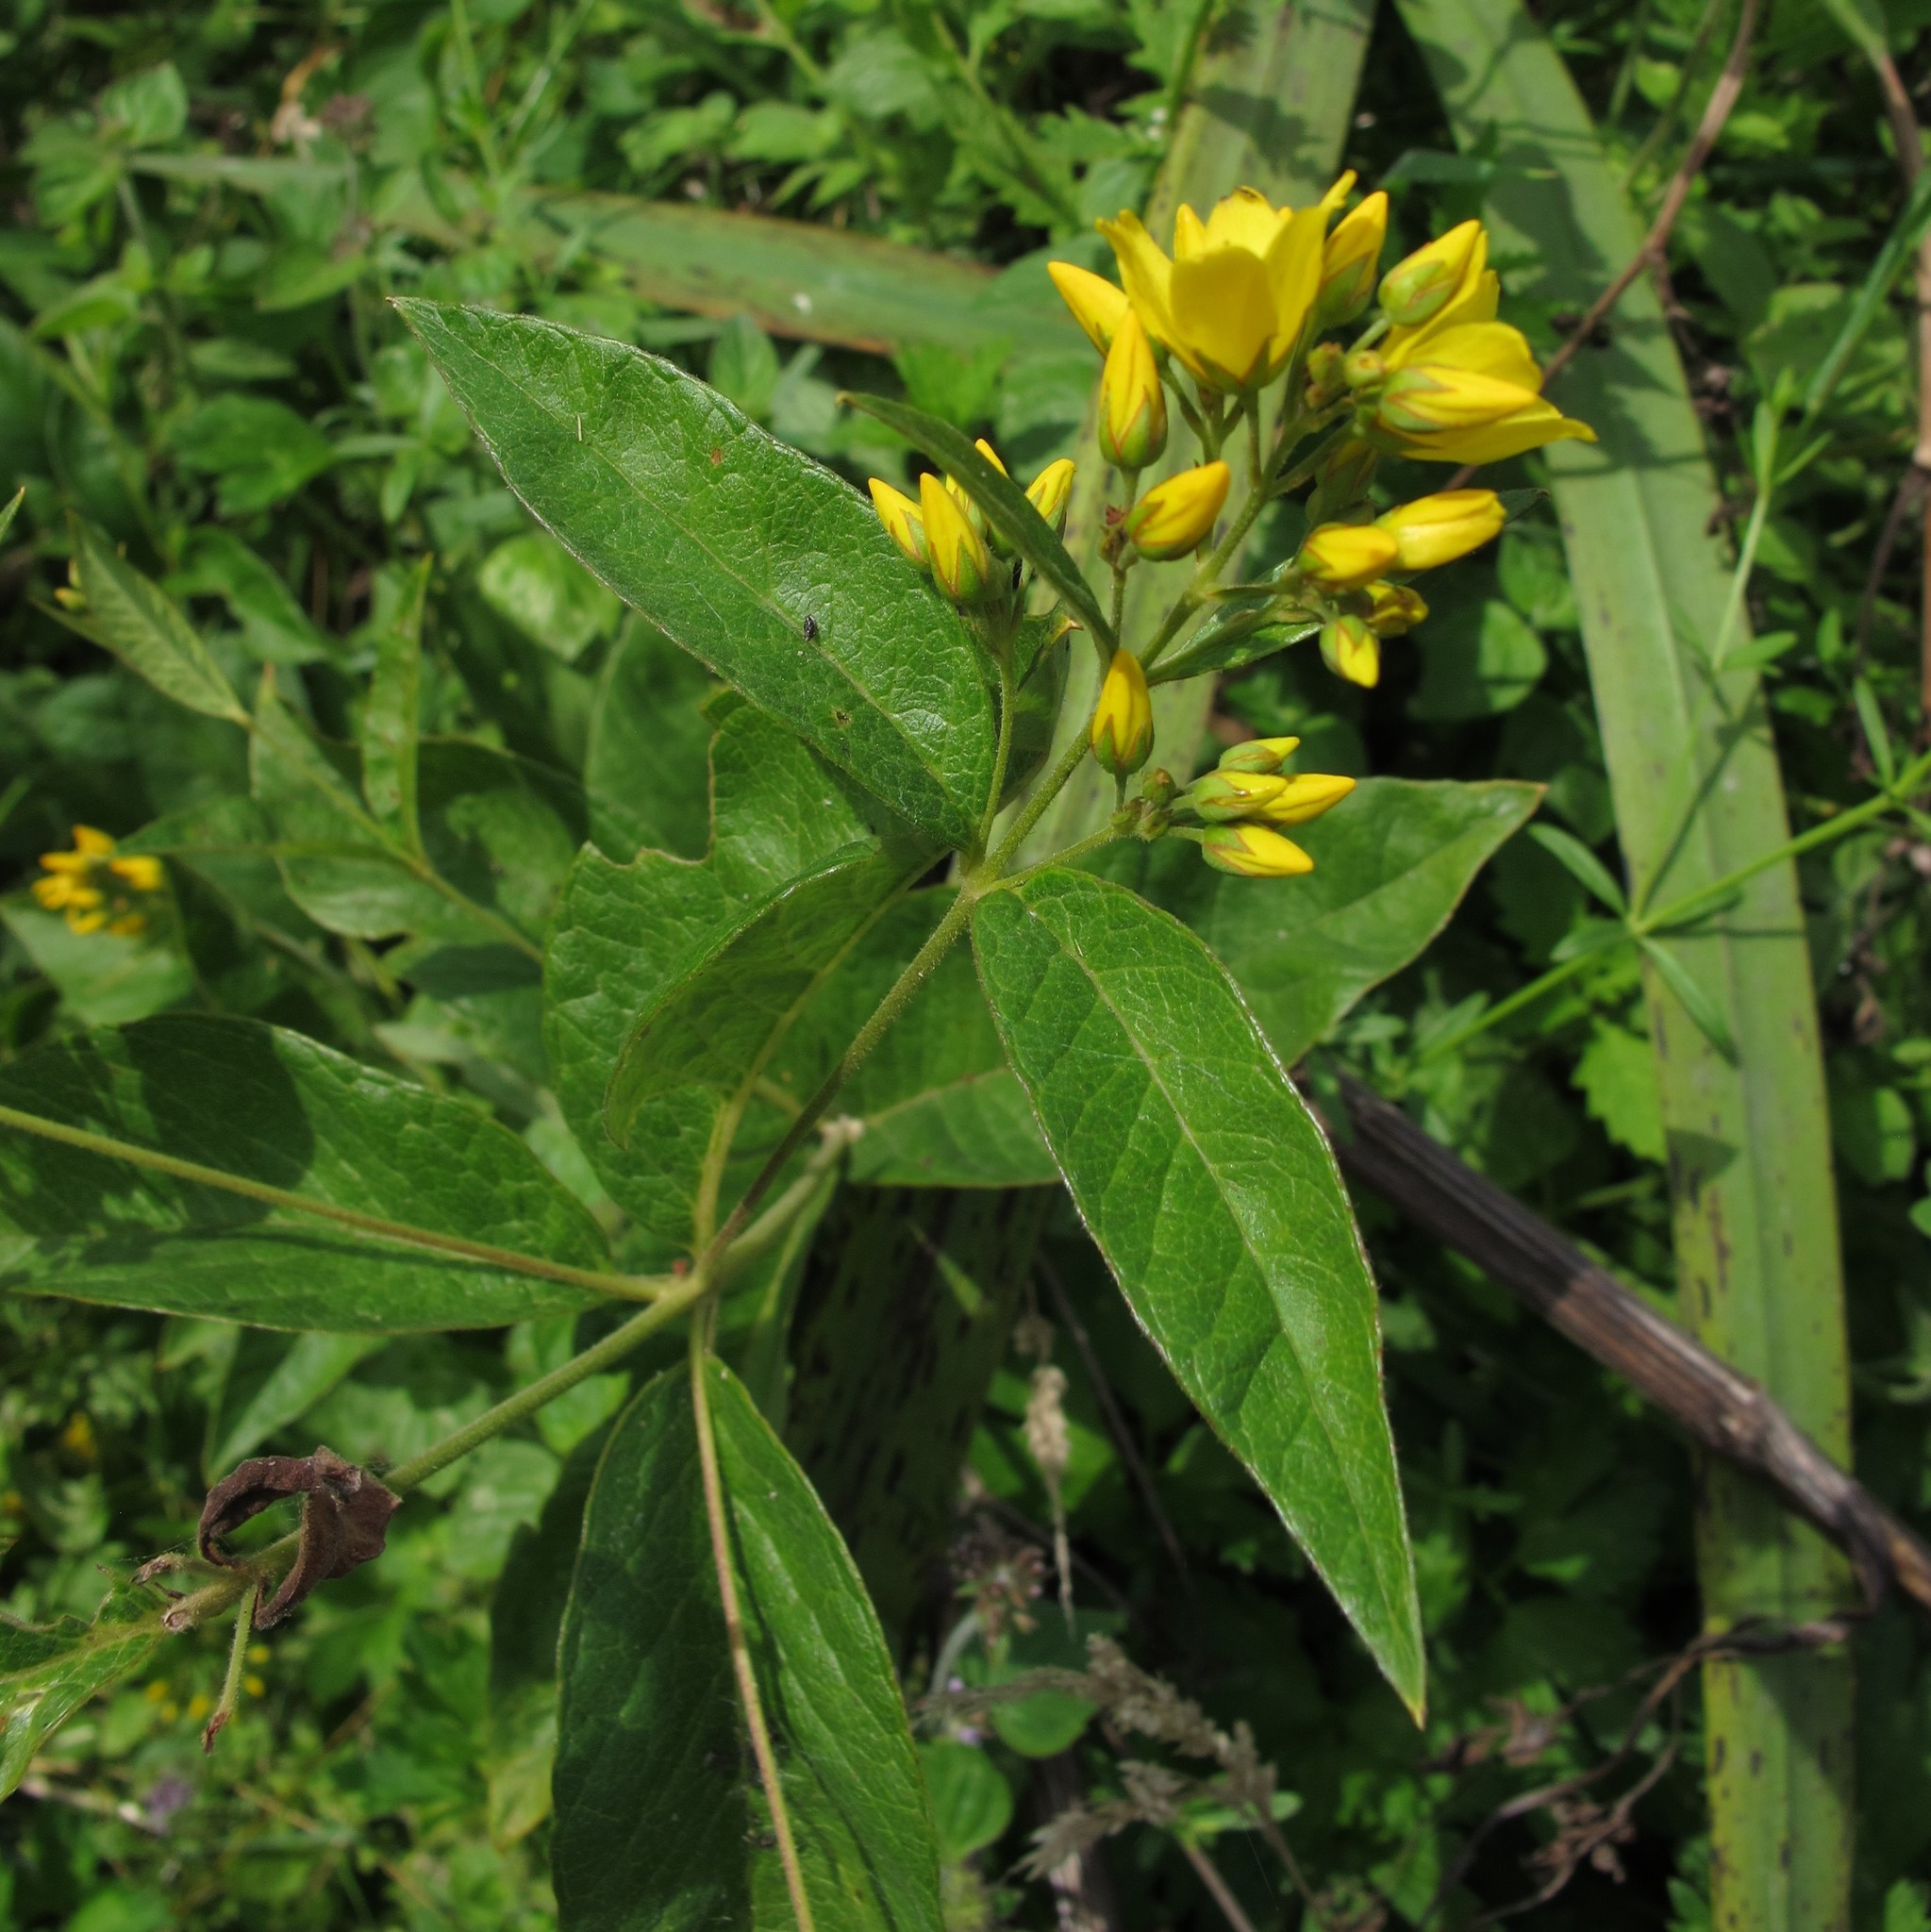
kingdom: Plantae
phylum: Tracheophyta
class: Magnoliopsida
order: Ericales
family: Primulaceae
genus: Lysimachia
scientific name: Lysimachia vulgaris
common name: Yellow loosestrife
